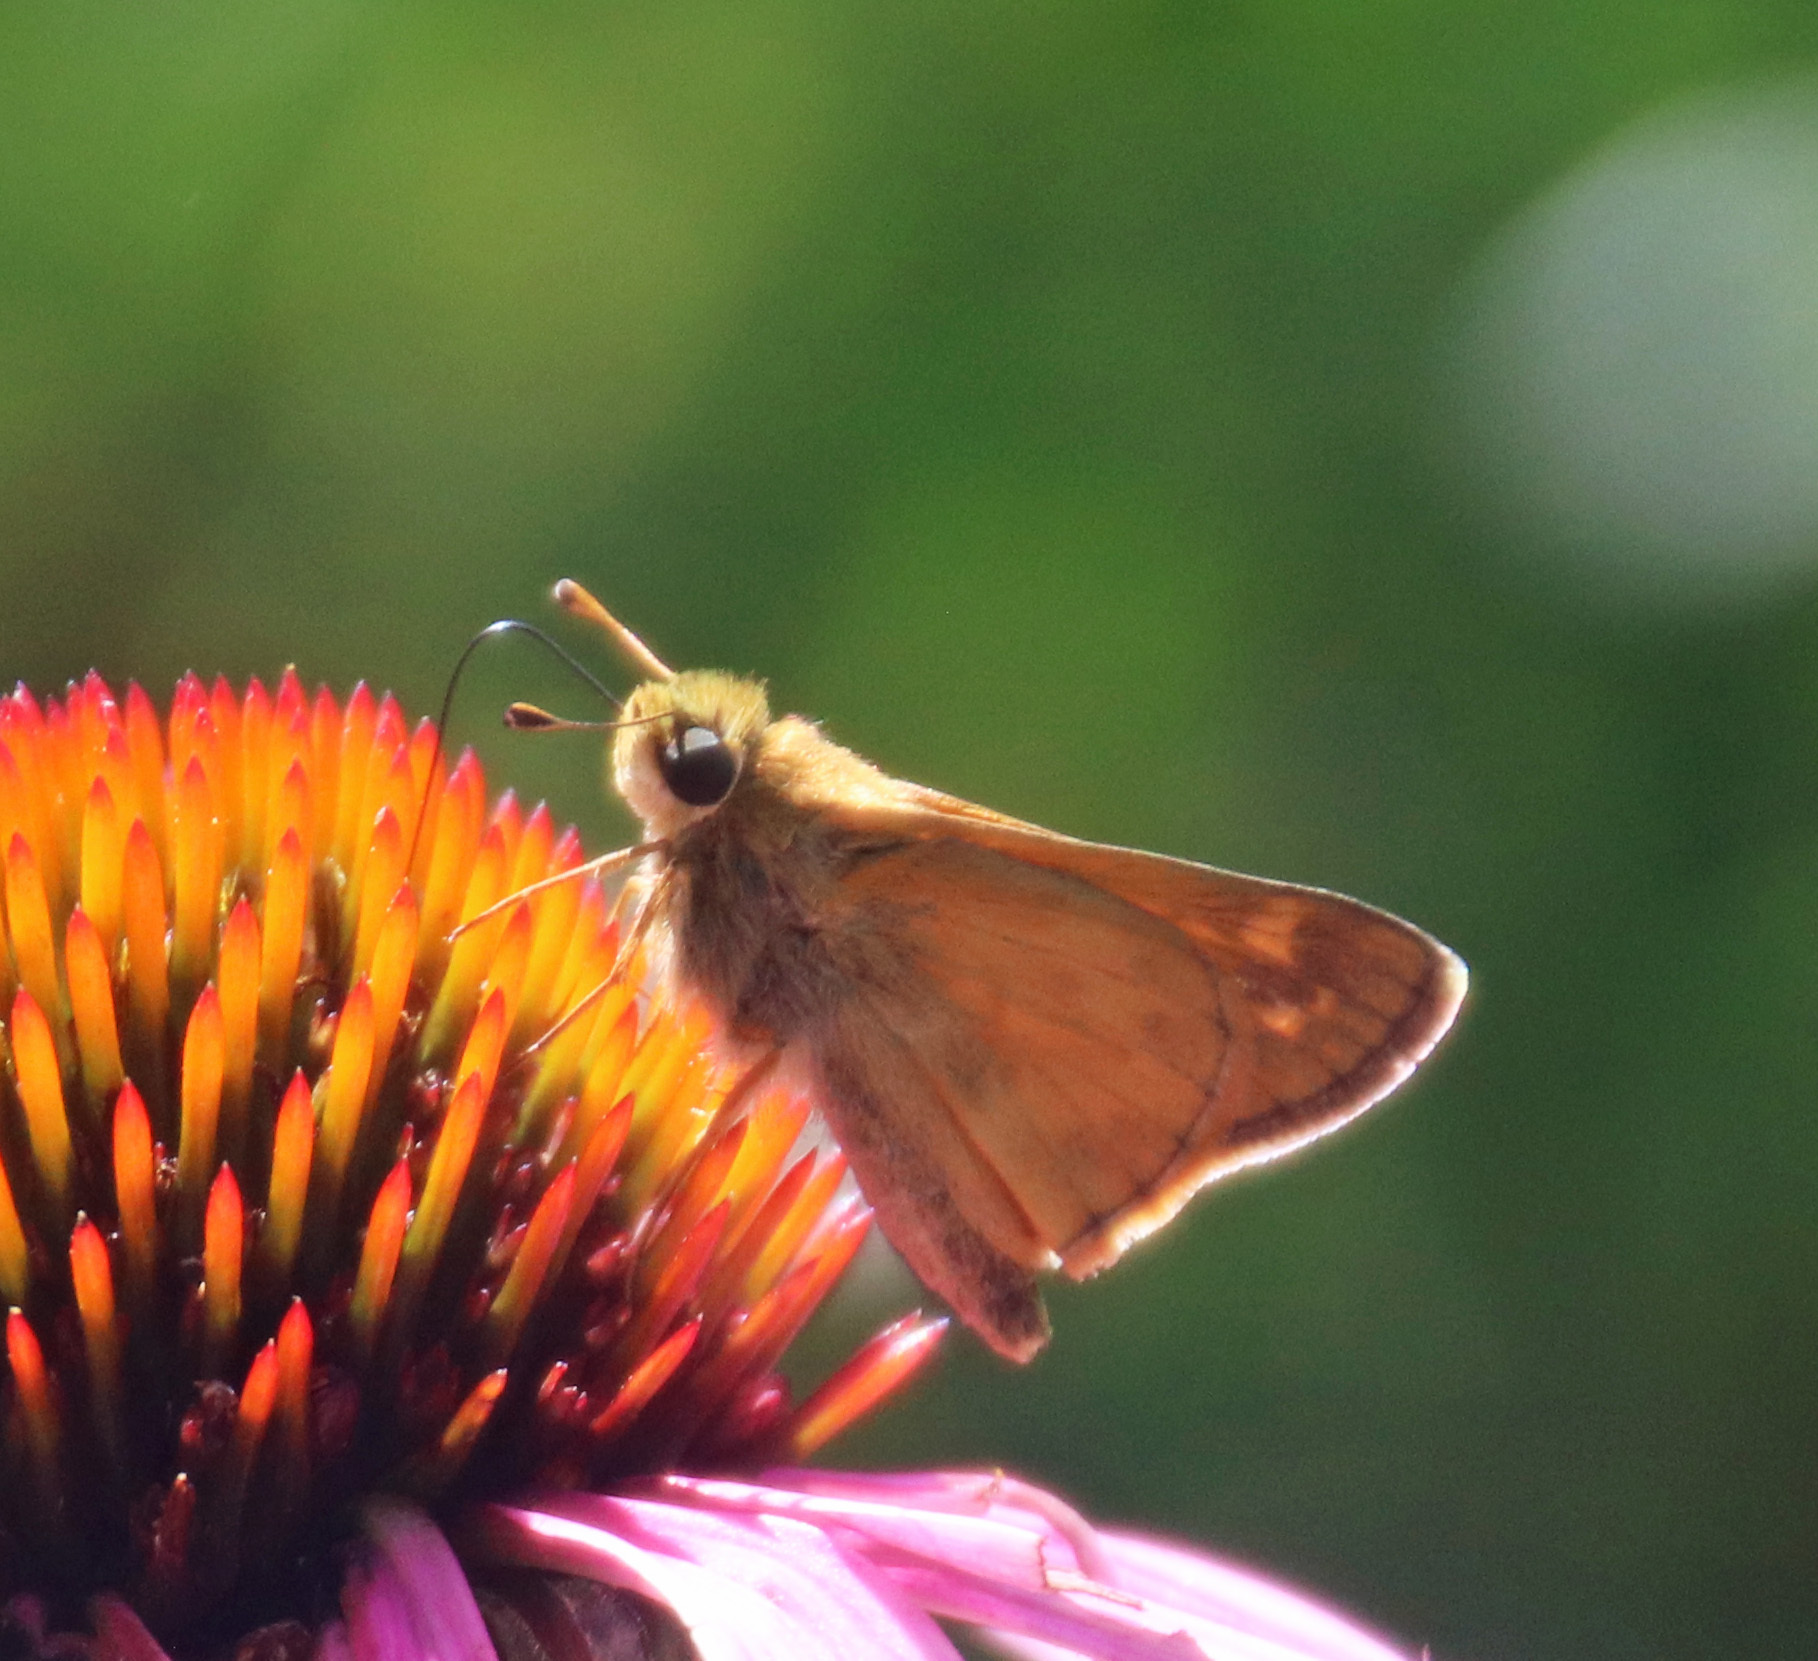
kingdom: Animalia
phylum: Arthropoda
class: Insecta
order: Lepidoptera
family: Hesperiidae
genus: Atalopedes
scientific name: Atalopedes
